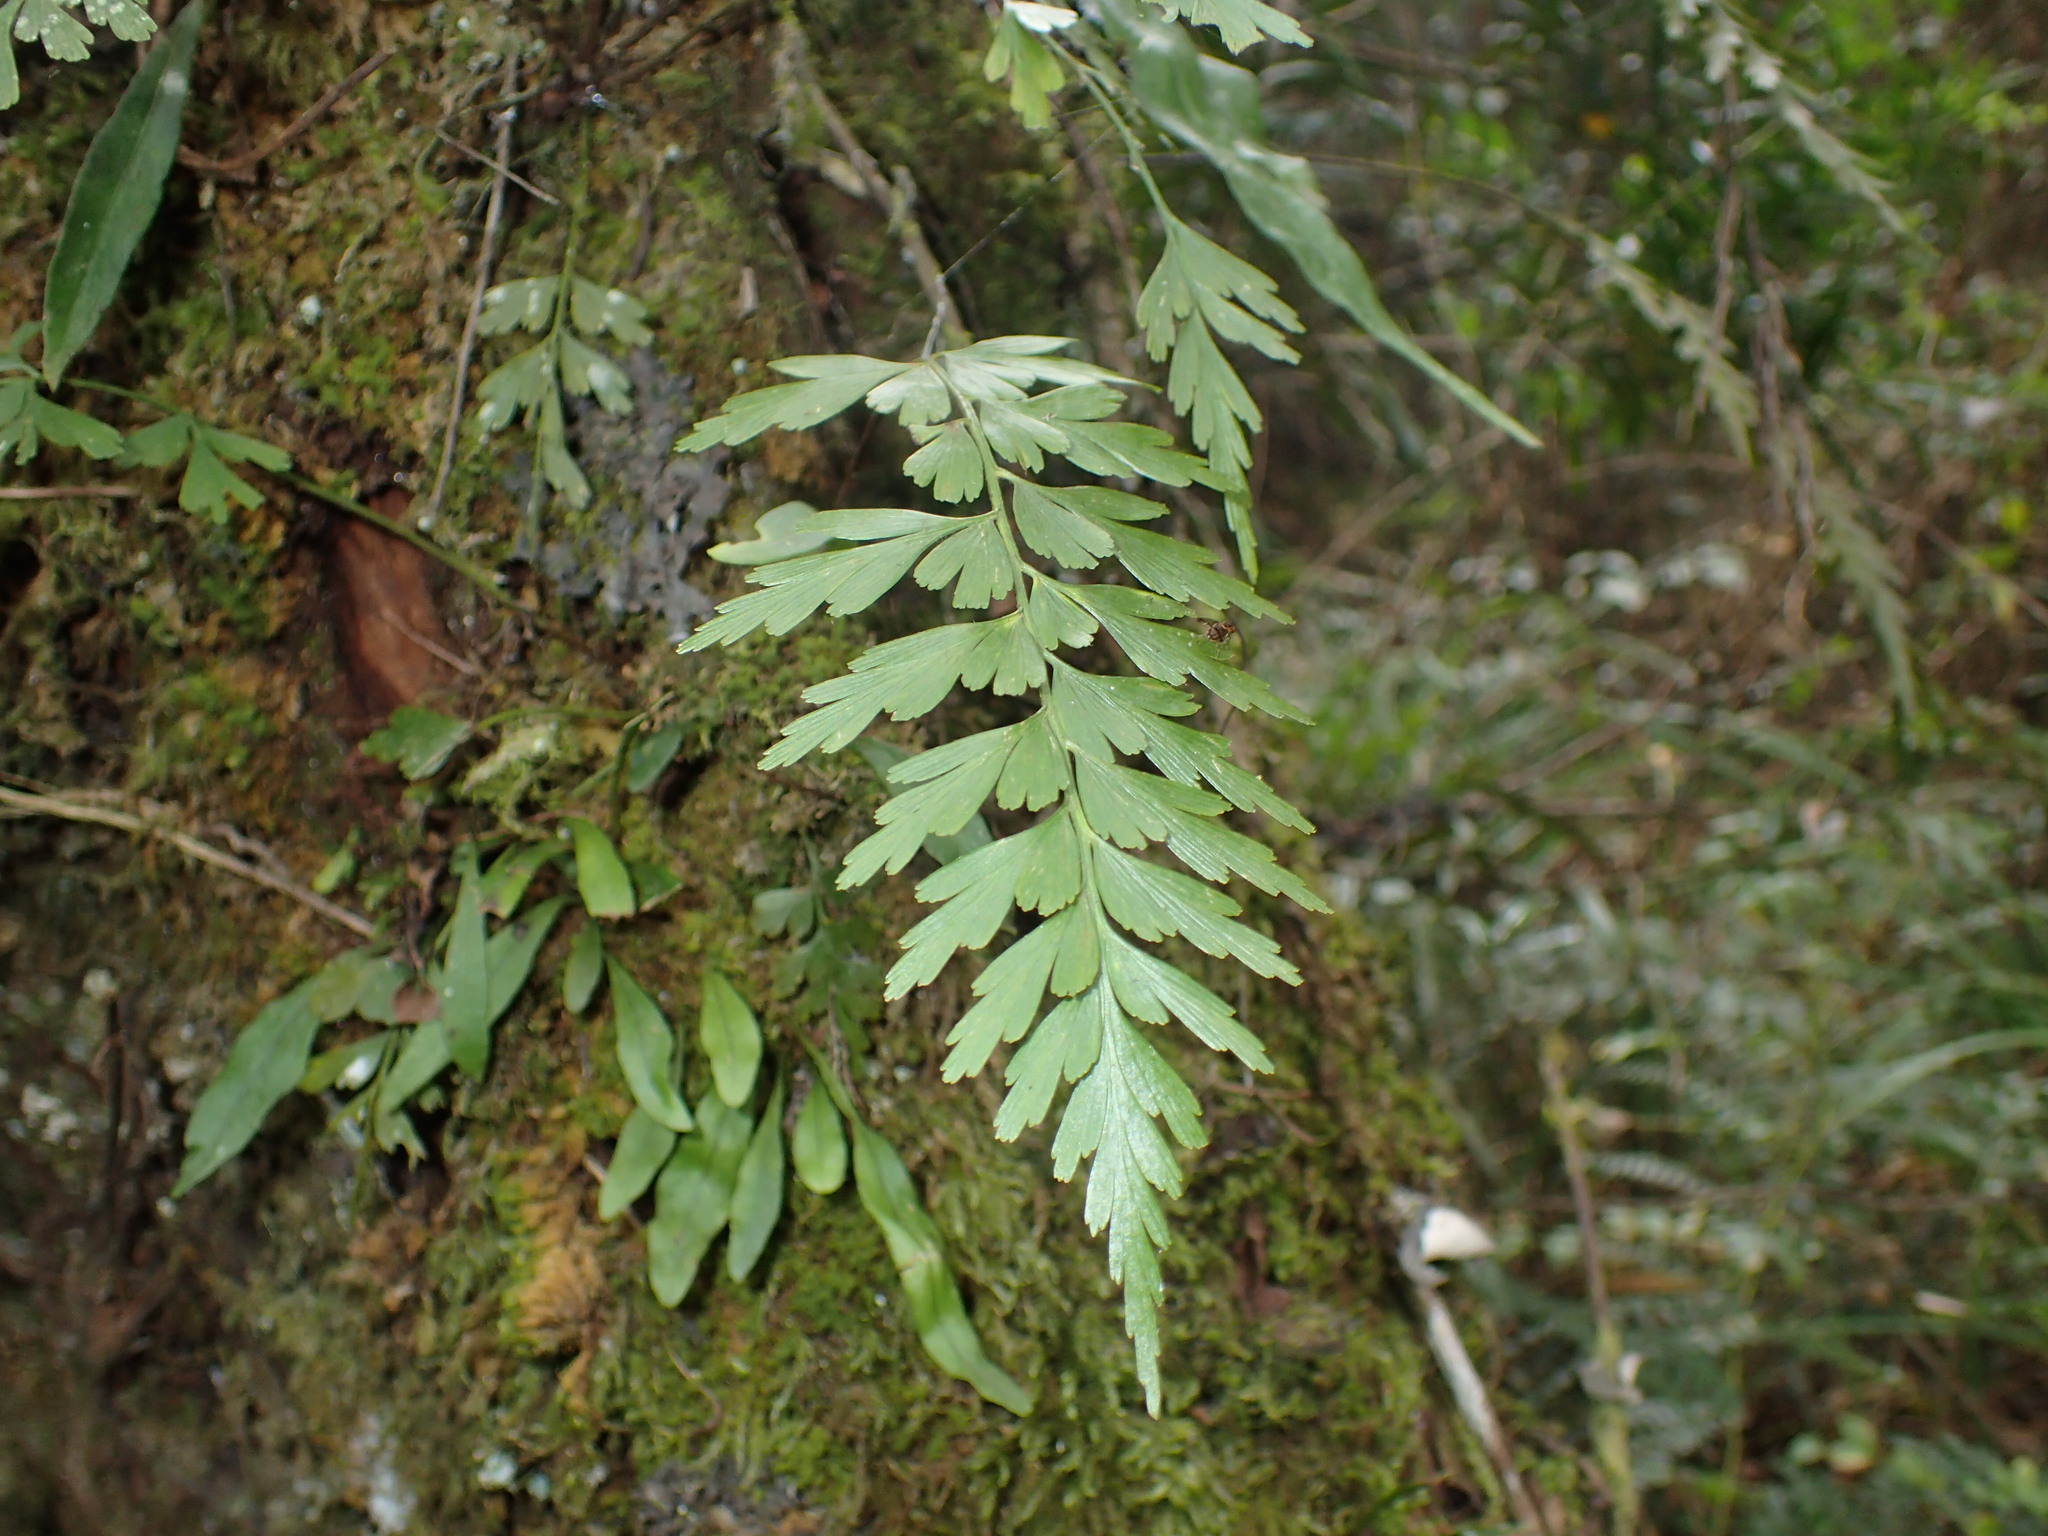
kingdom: Plantae
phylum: Tracheophyta
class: Polypodiopsida
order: Polypodiales
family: Aspleniaceae
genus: Asplenium
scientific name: Asplenium aethiopicum
